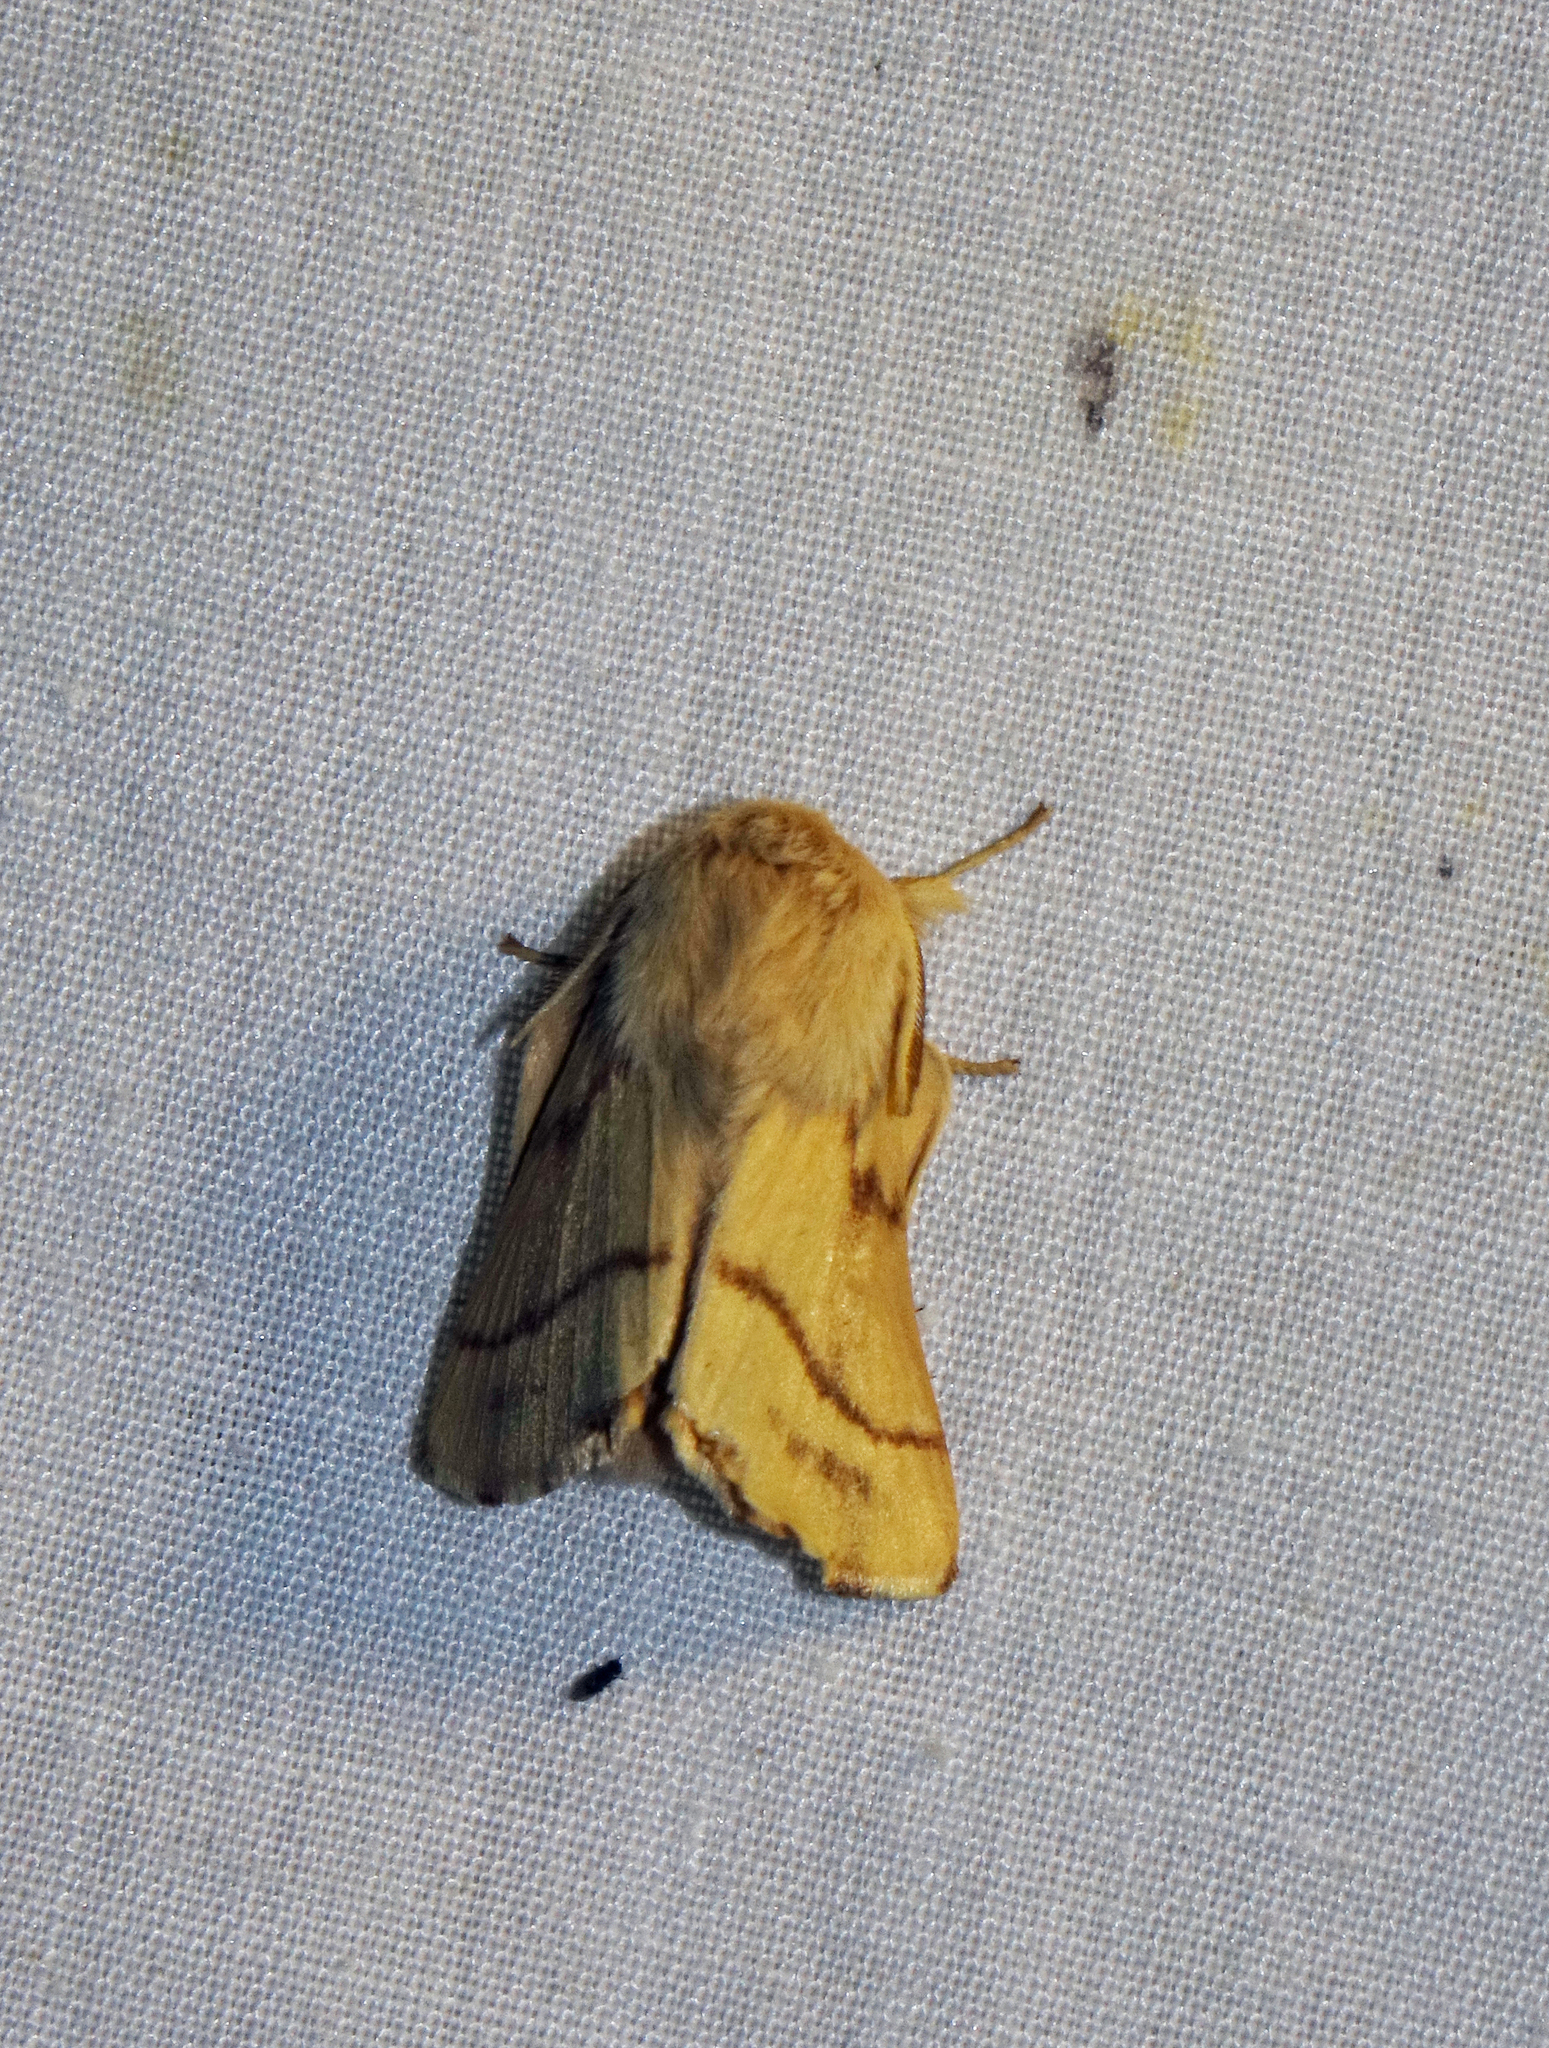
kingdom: Animalia
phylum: Arthropoda
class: Insecta
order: Lepidoptera
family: Lasiocampidae
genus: Malacosoma
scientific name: Malacosoma castrense
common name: Ground lackey
